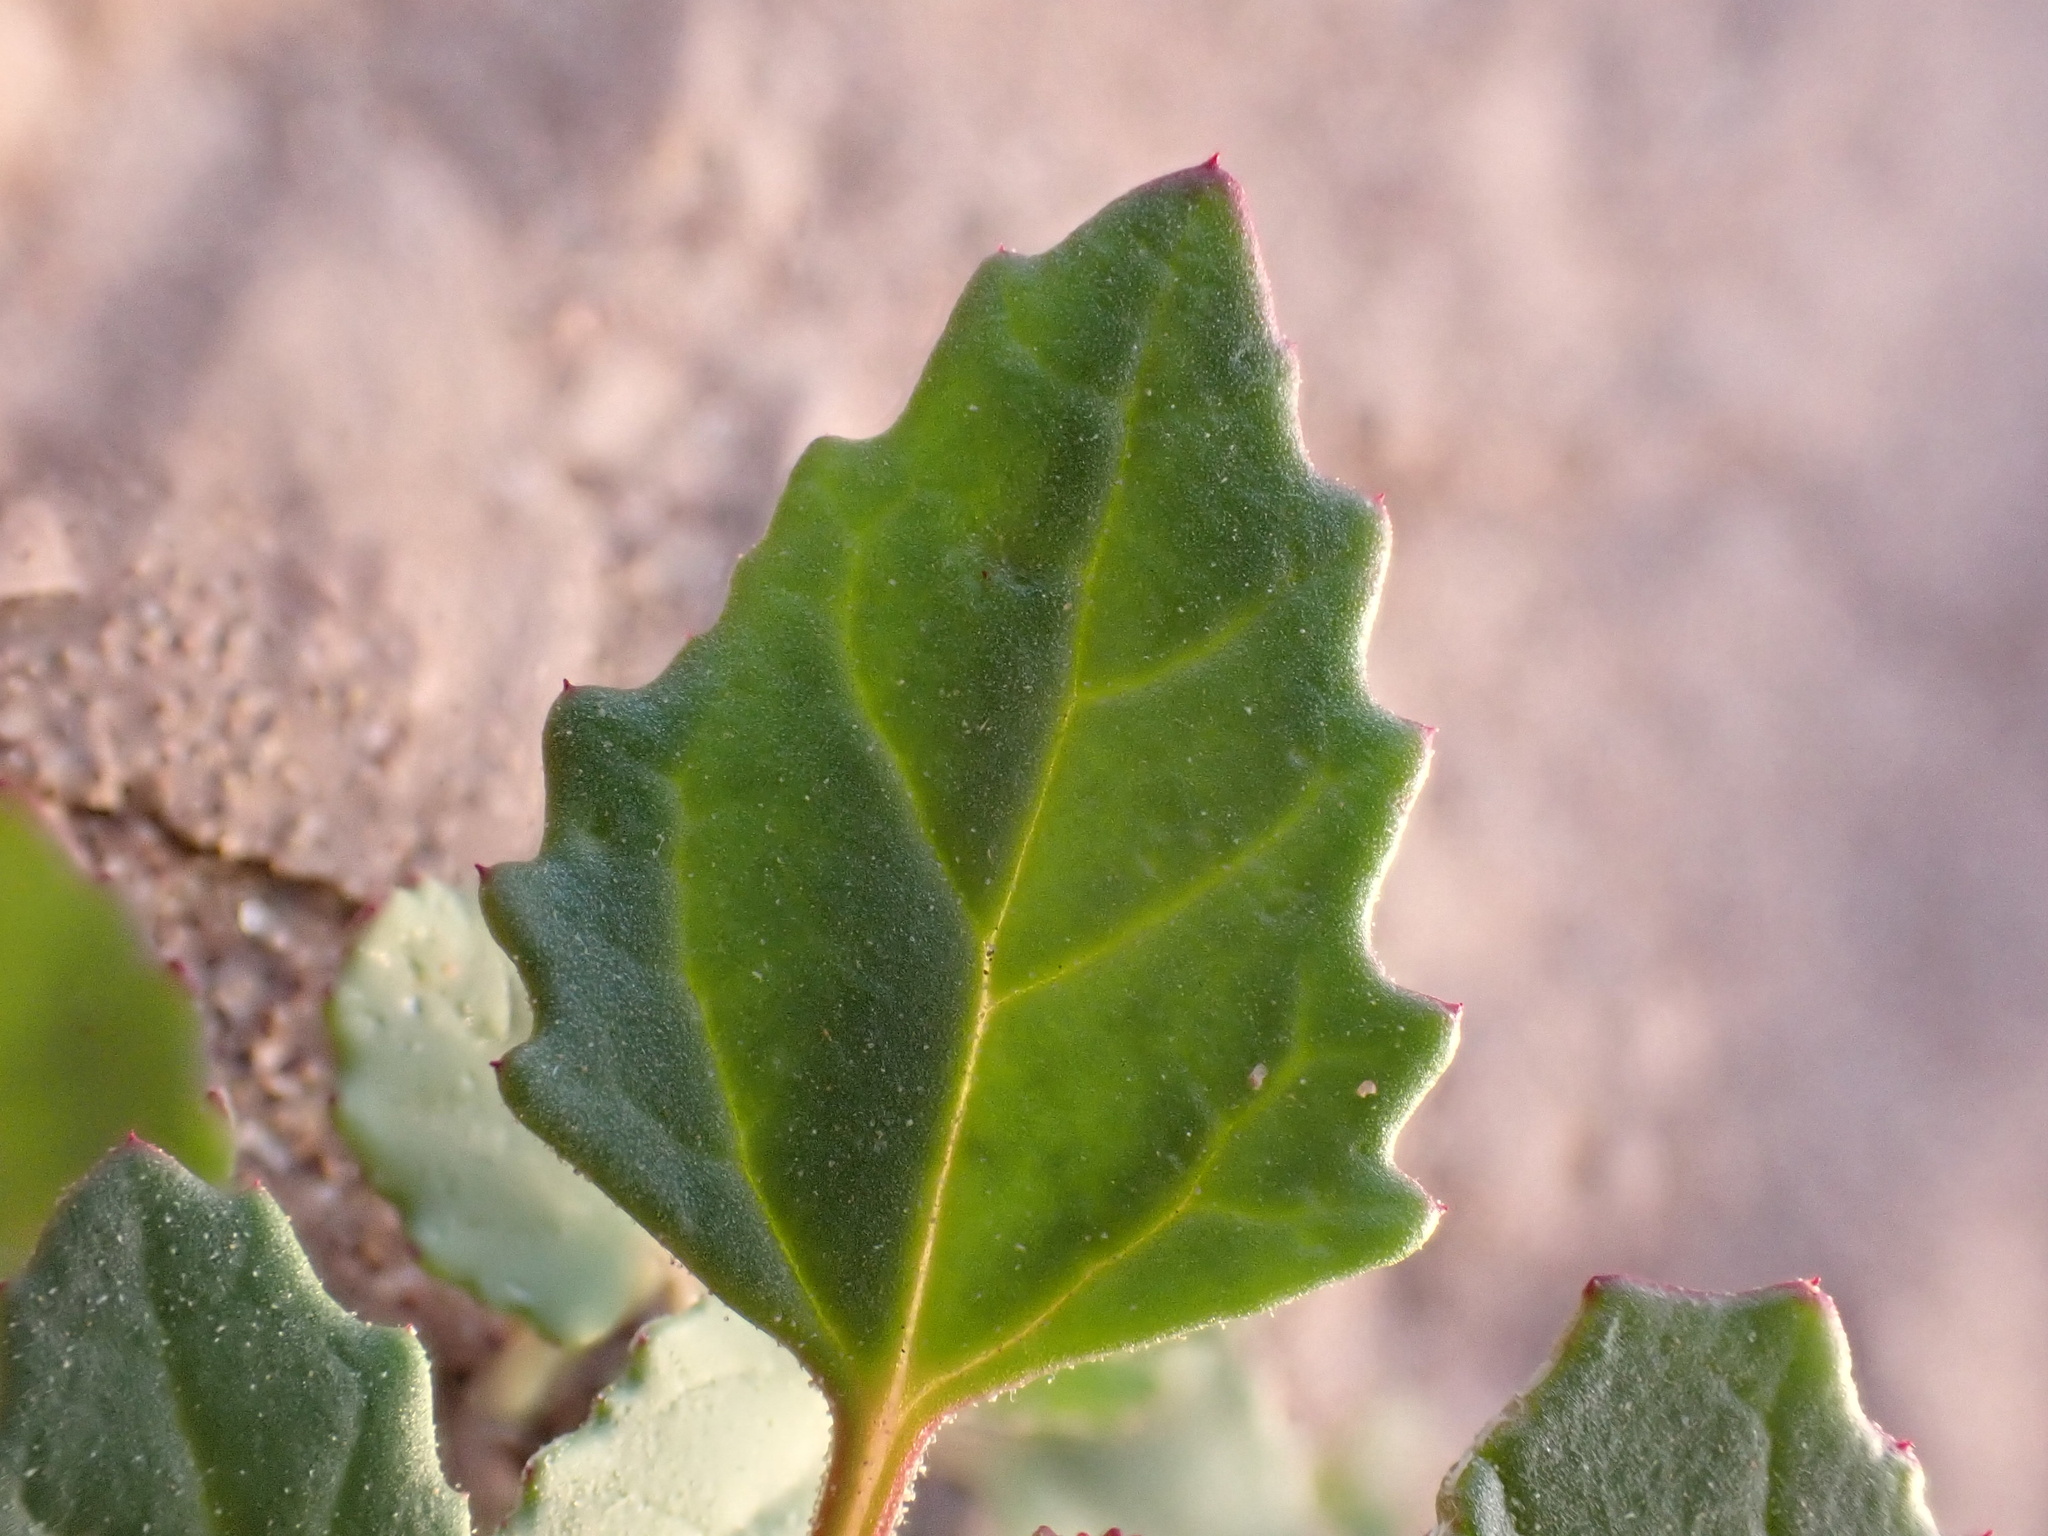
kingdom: Plantae
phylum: Tracheophyta
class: Magnoliopsida
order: Caryophyllales
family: Amaranthaceae
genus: Atriplex
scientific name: Atriplex suberecta
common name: Australian orache
